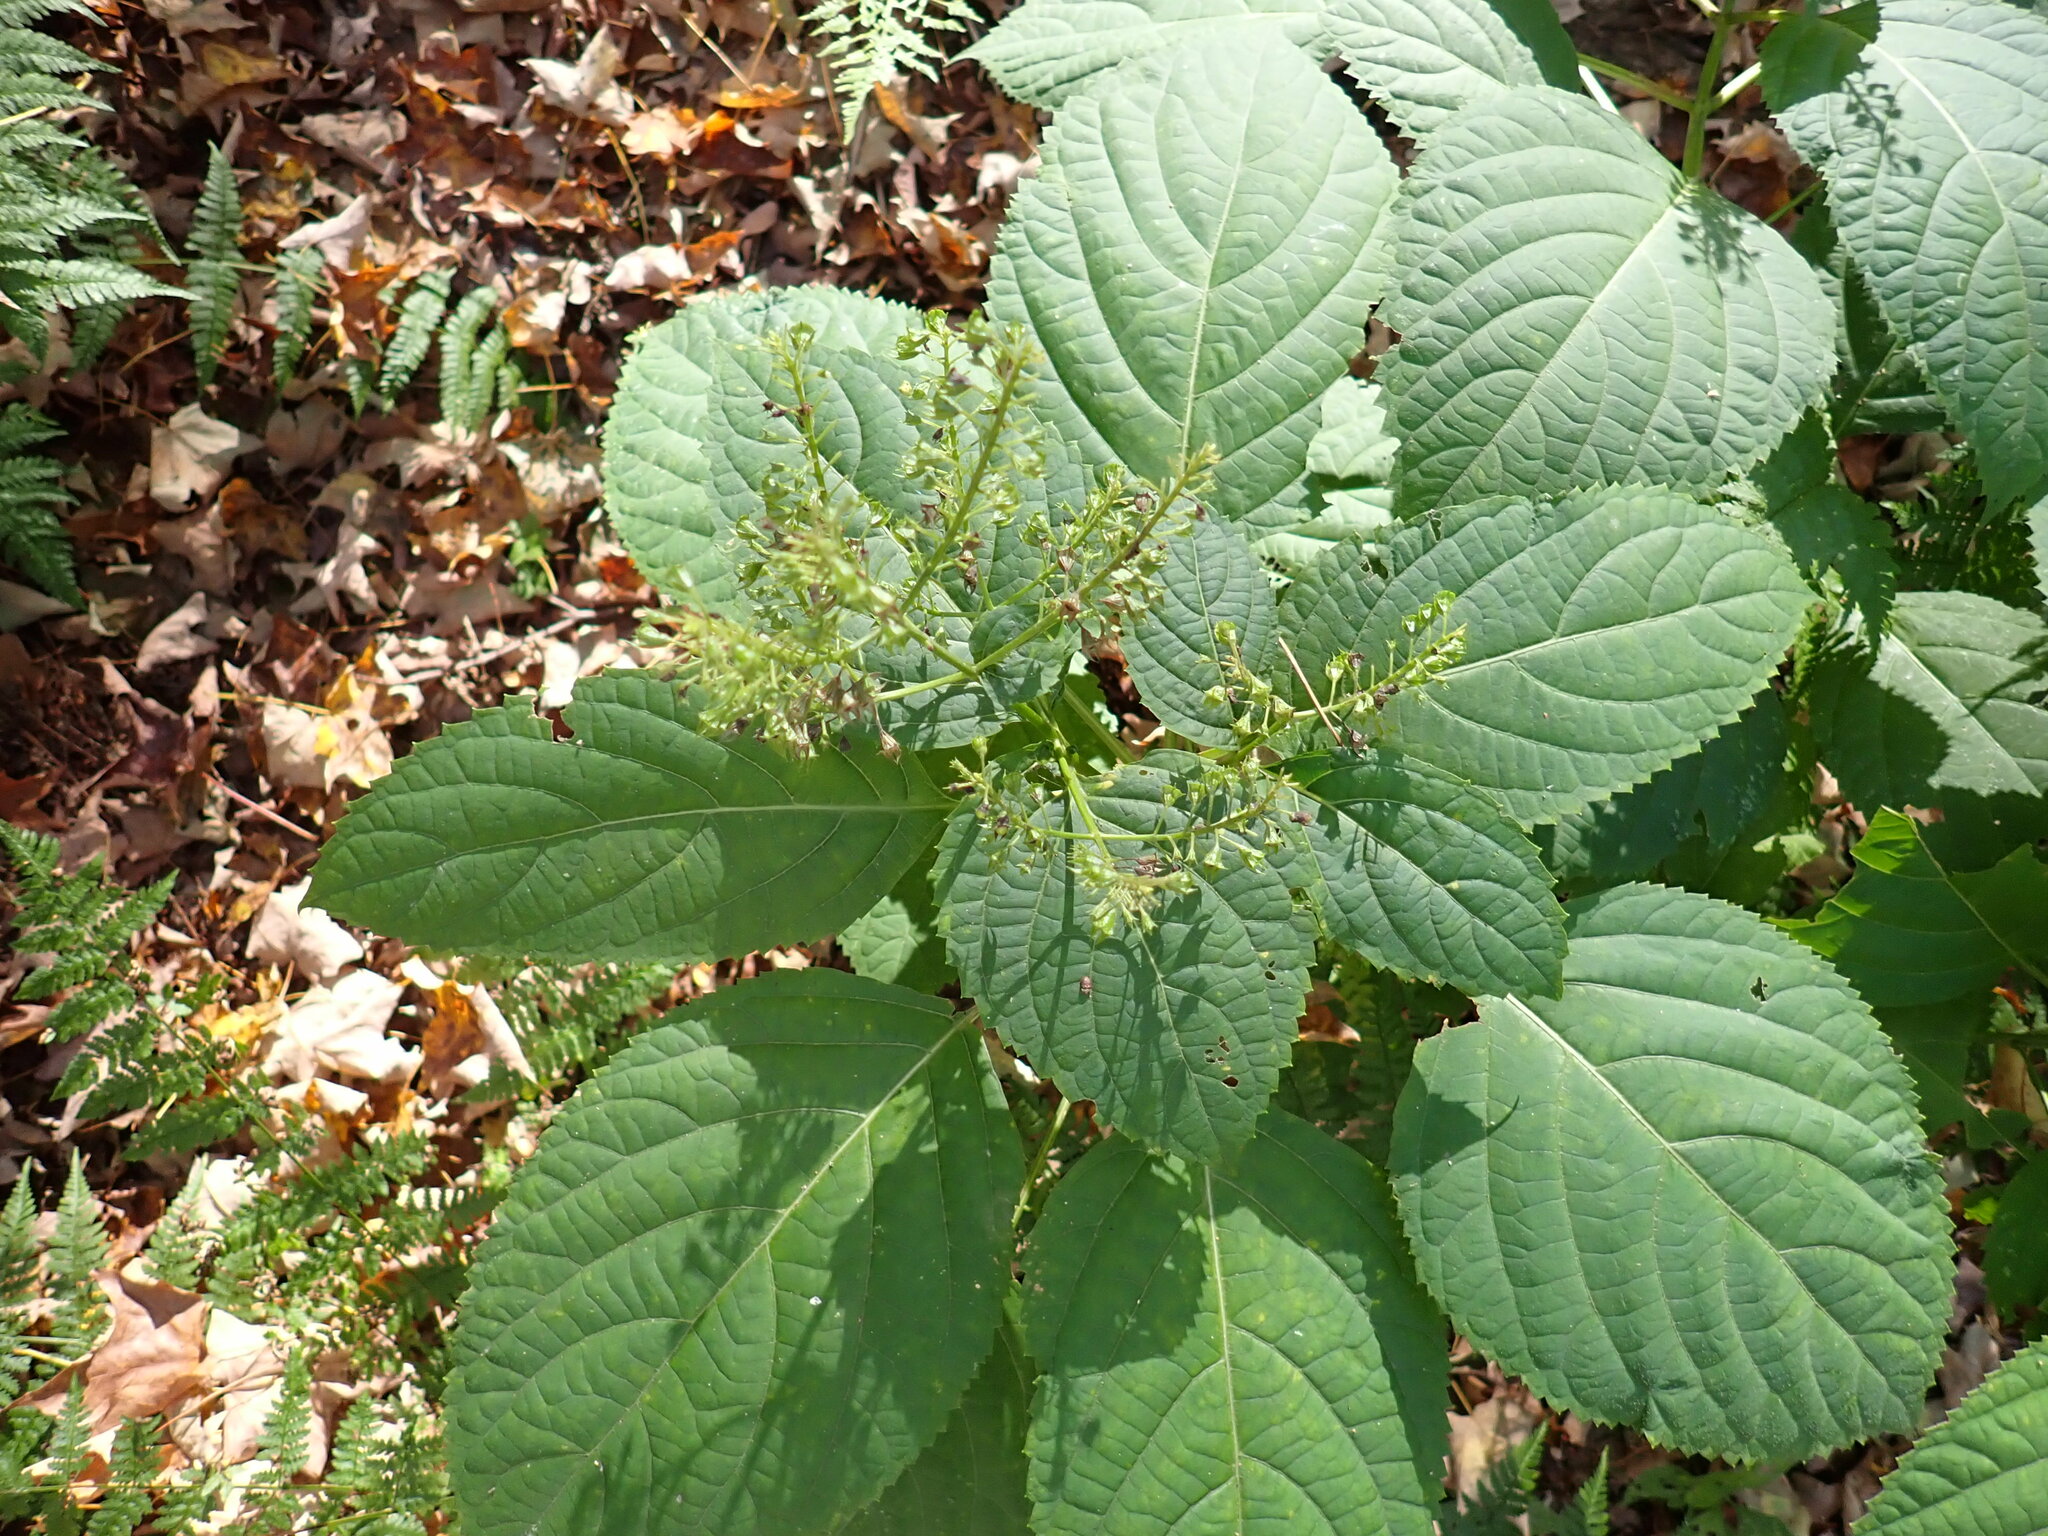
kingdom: Plantae
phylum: Tracheophyta
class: Magnoliopsida
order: Lamiales
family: Lamiaceae
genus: Collinsonia
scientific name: Collinsonia canadensis
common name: Northern horsebalm
